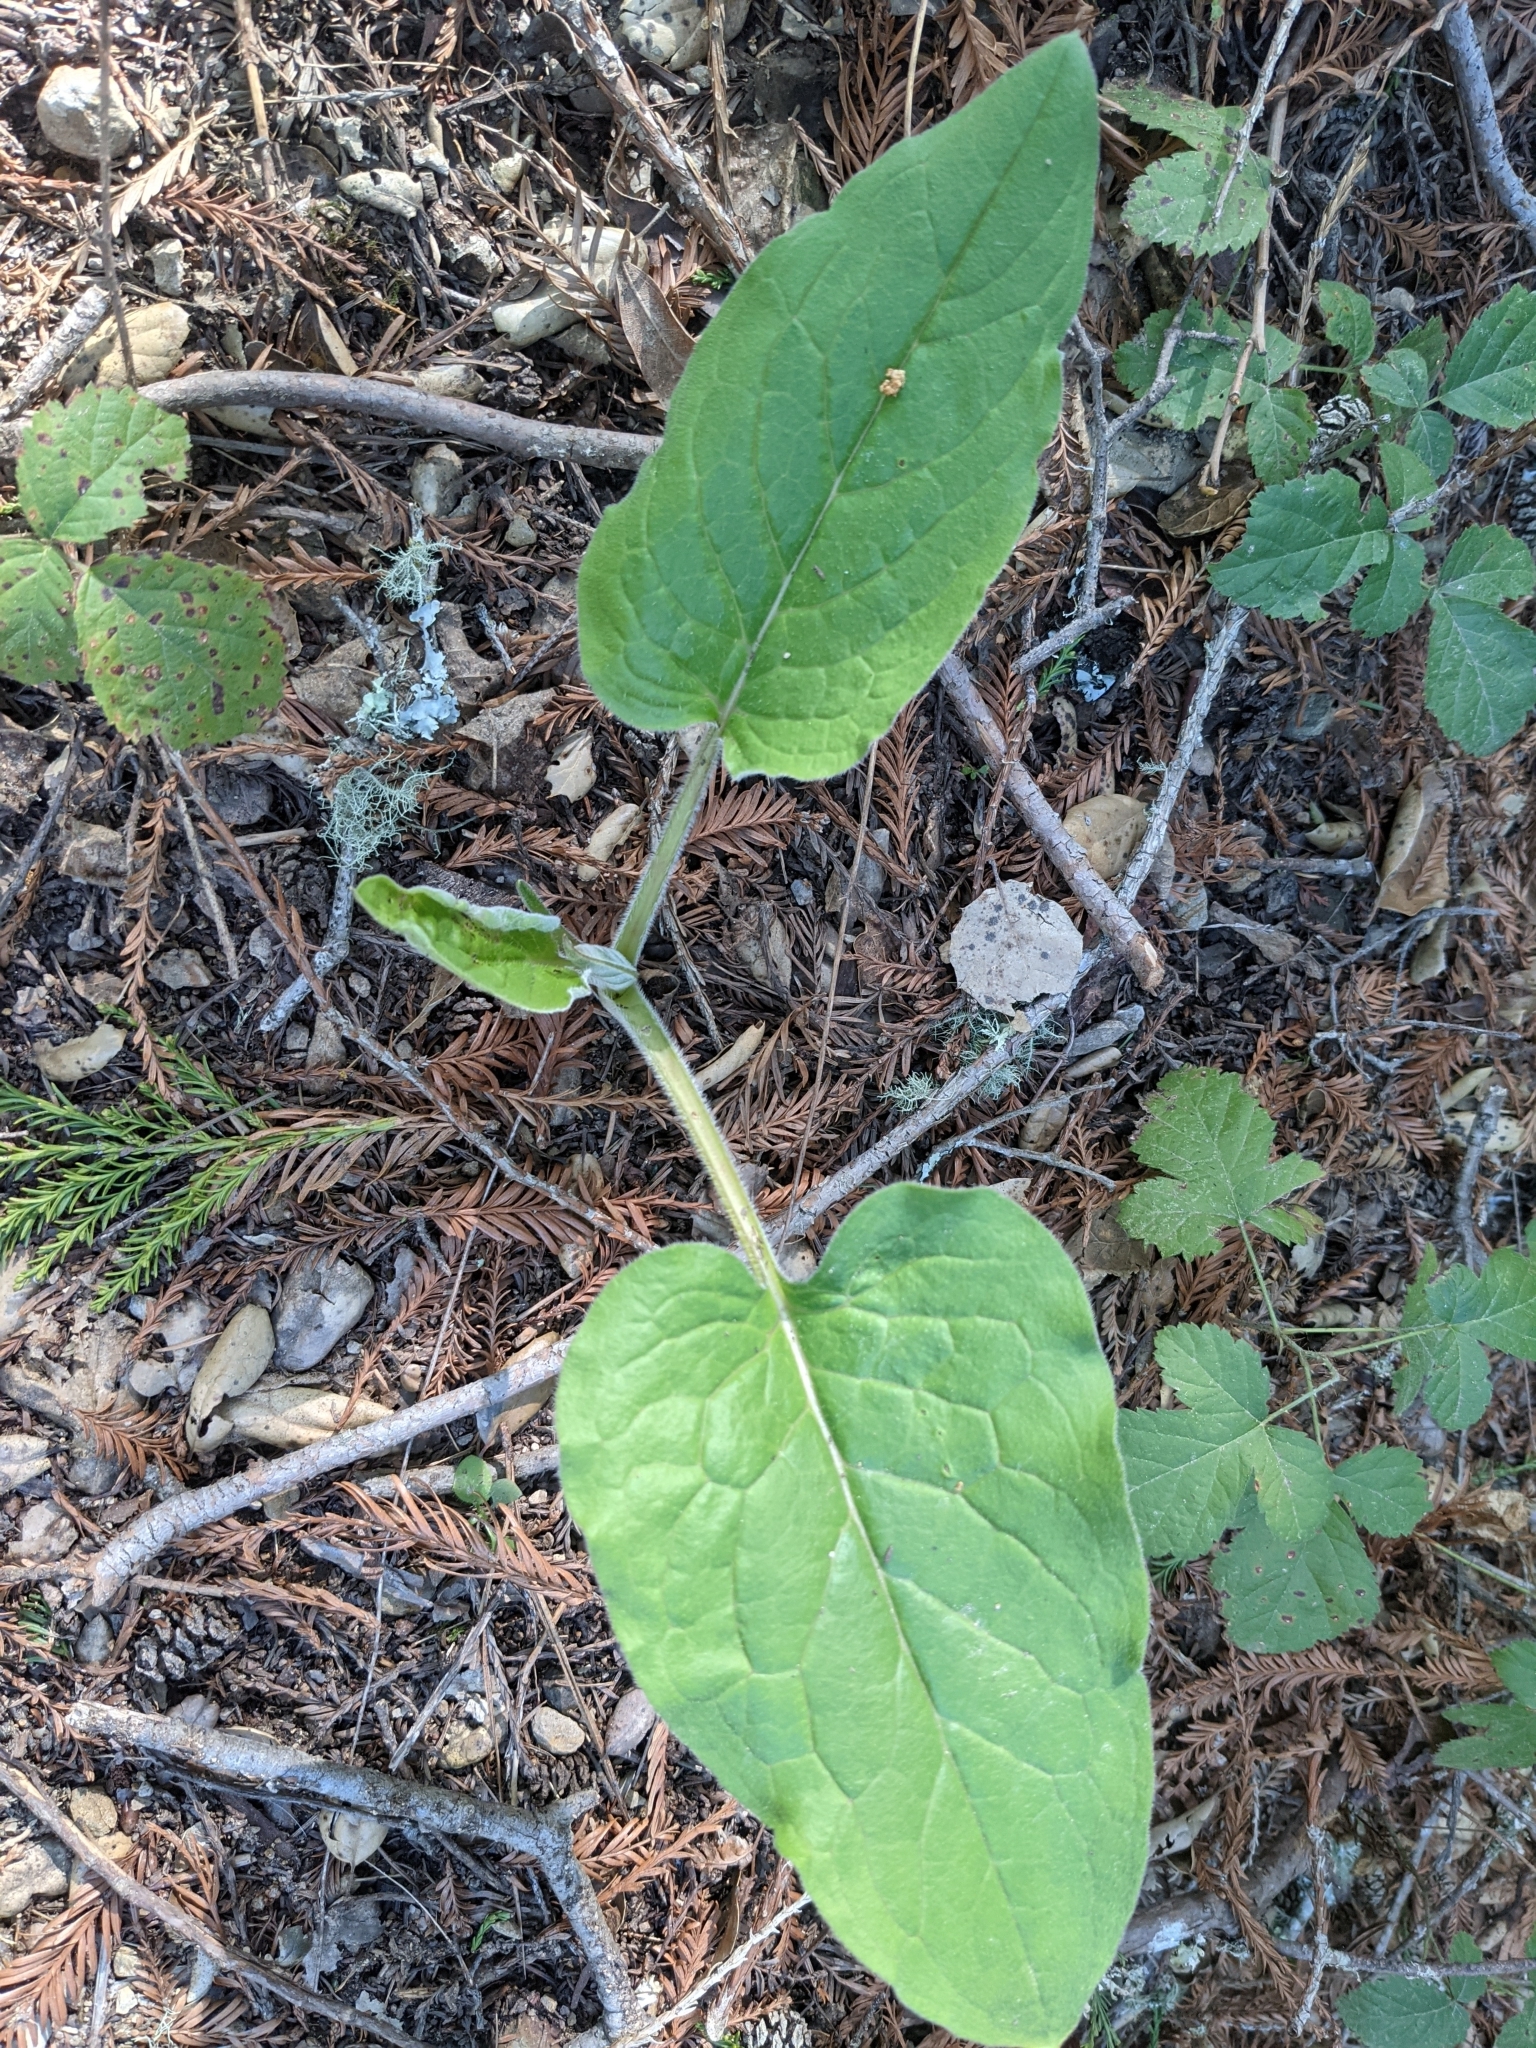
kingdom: Plantae
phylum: Tracheophyta
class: Magnoliopsida
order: Boraginales
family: Boraginaceae
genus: Adelinia
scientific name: Adelinia grande
